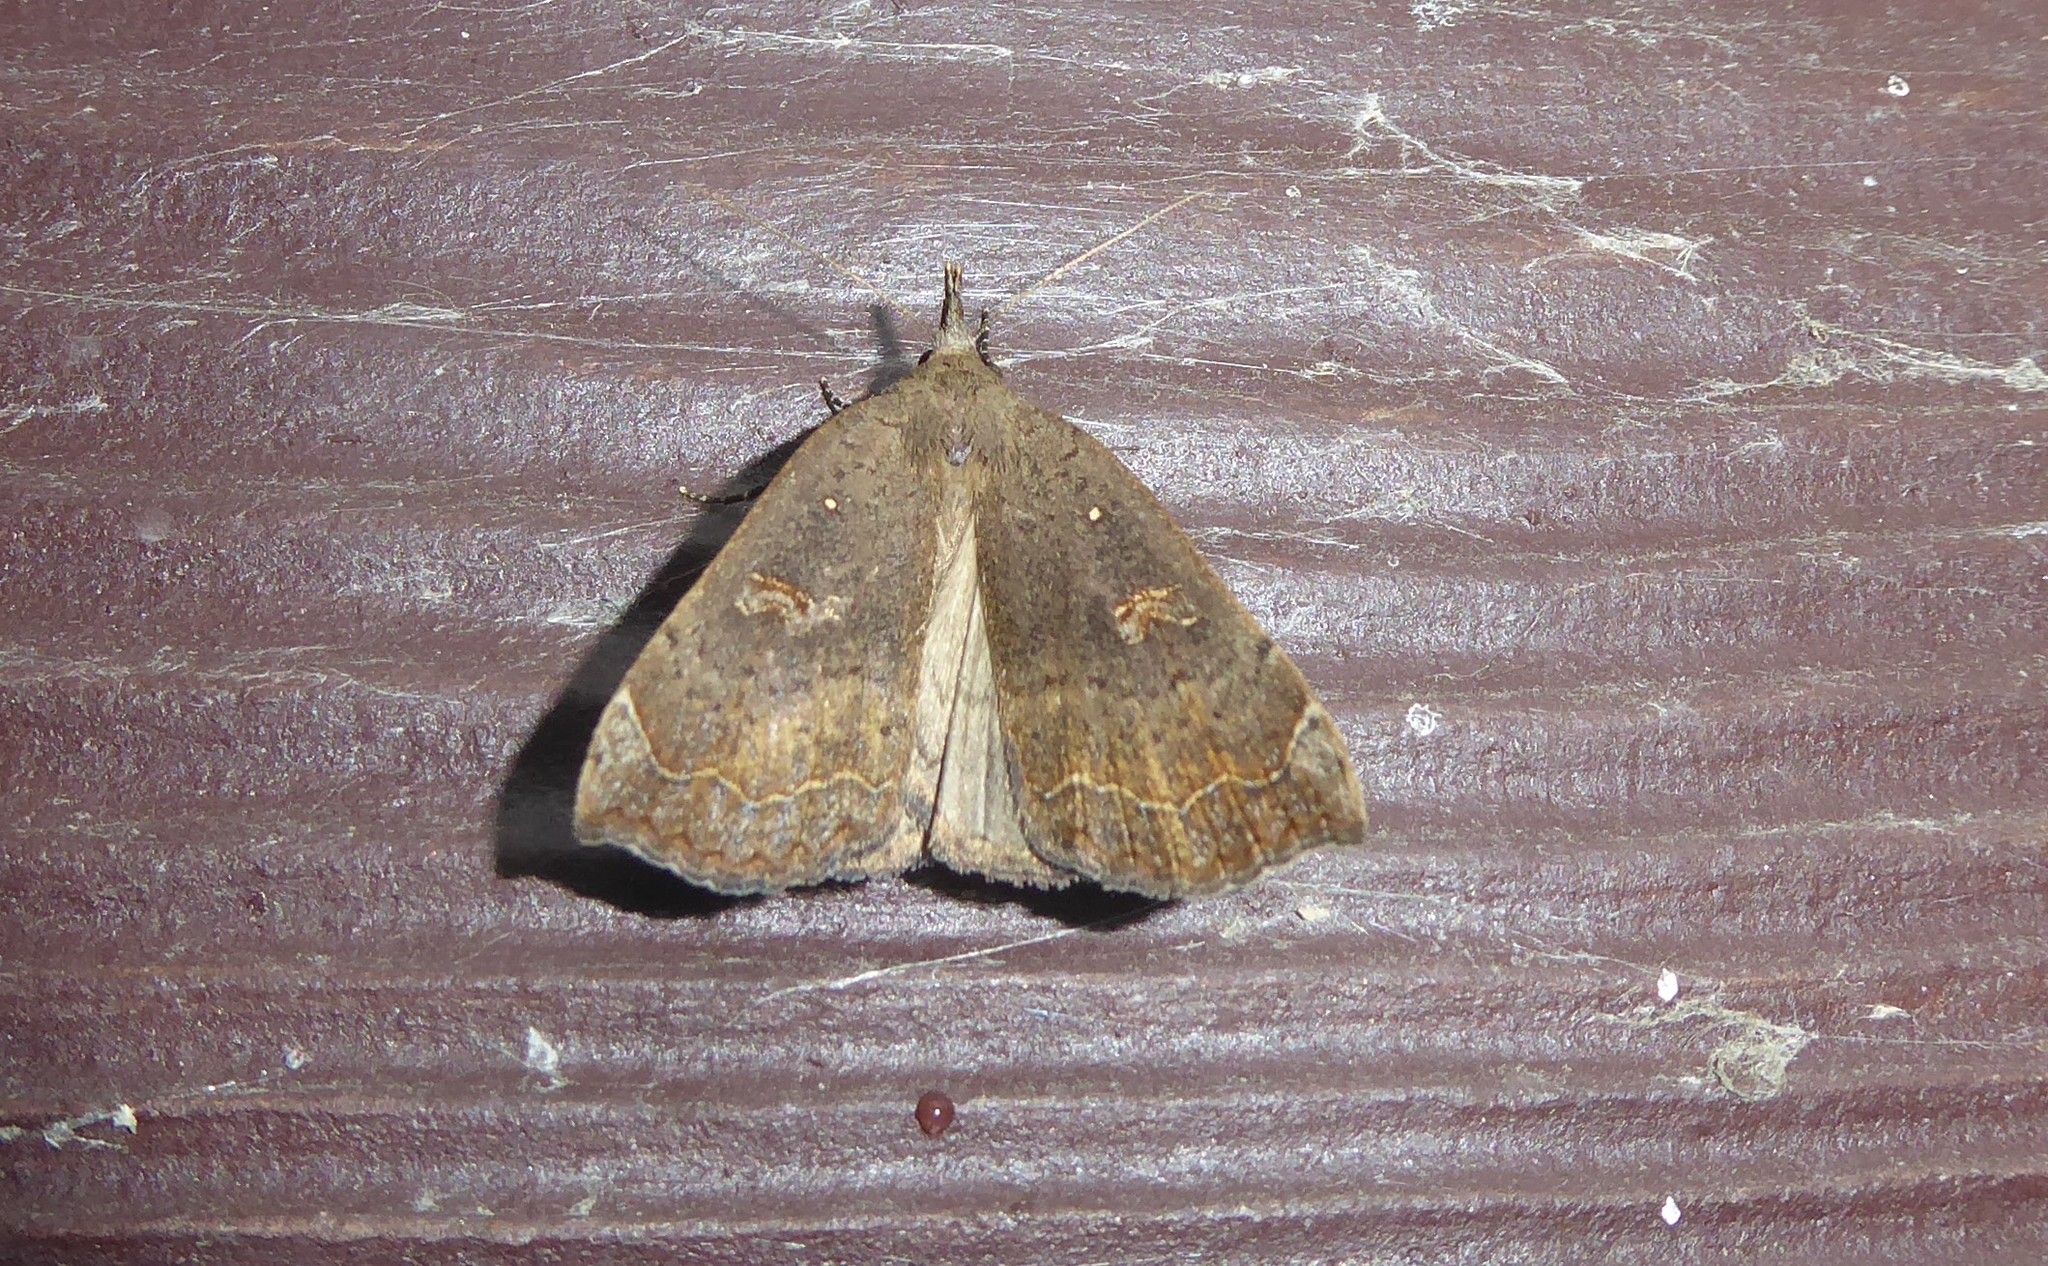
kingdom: Animalia
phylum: Arthropoda
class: Insecta
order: Lepidoptera
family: Erebidae
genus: Rhapsa
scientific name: Rhapsa scotosialis
